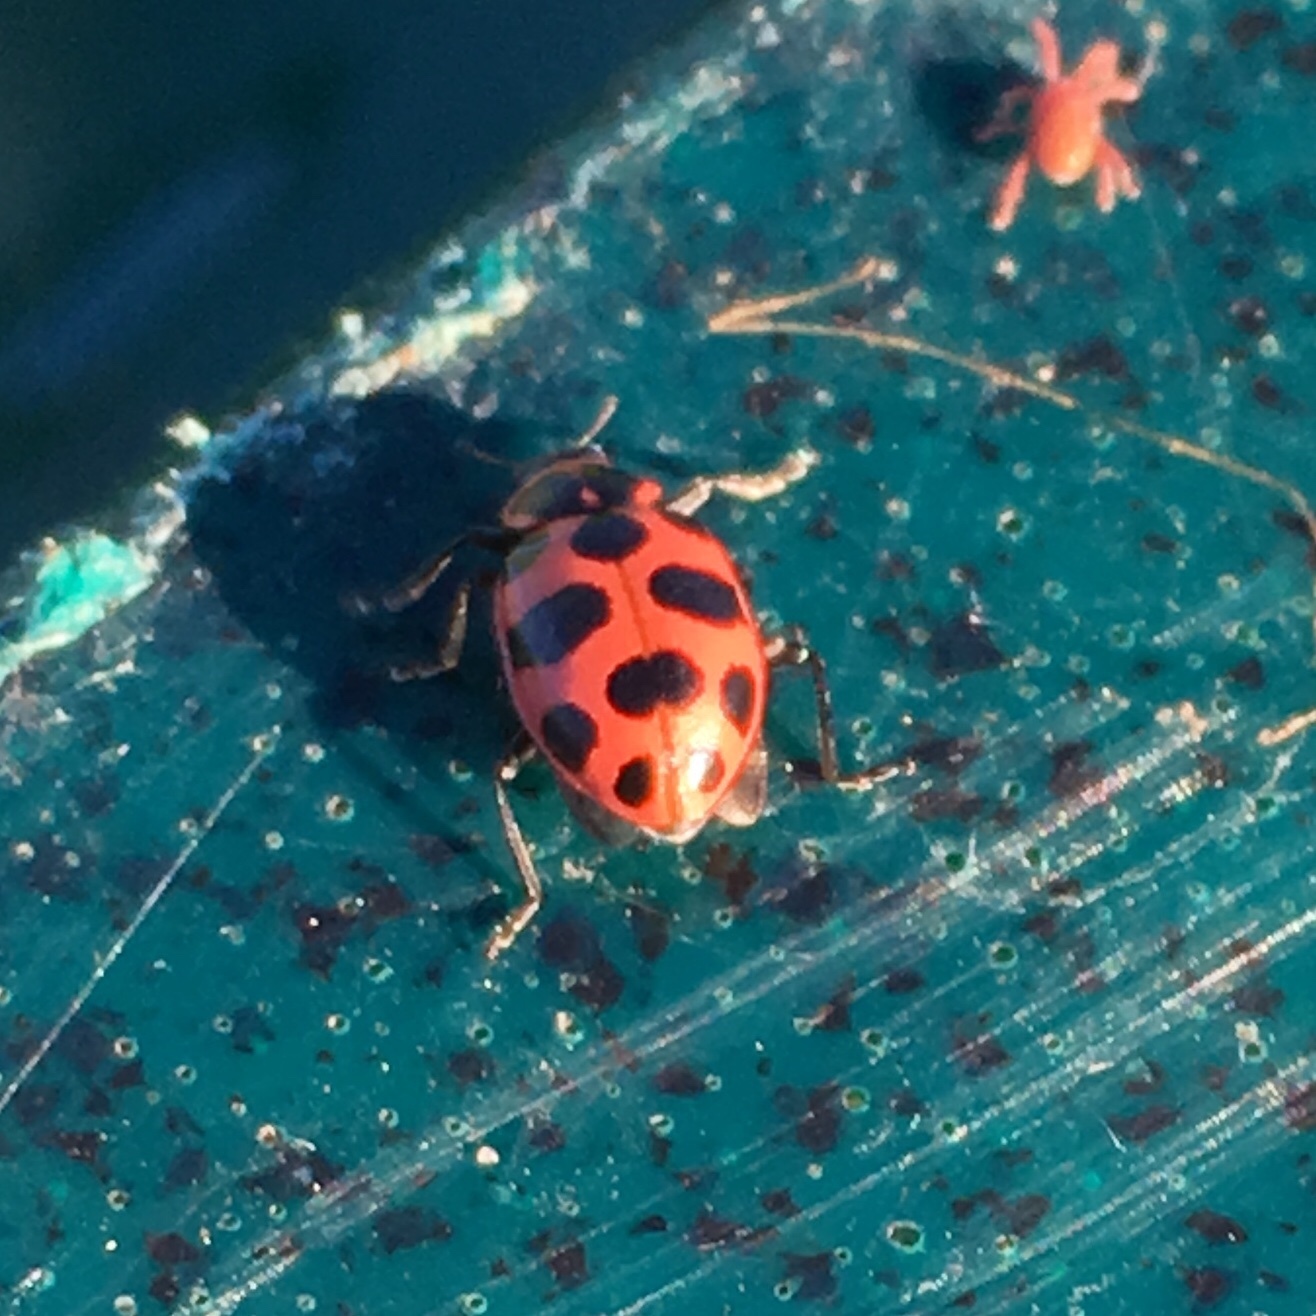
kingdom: Animalia
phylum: Arthropoda
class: Insecta
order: Coleoptera
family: Coccinellidae
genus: Coleomegilla
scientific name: Coleomegilla maculata
